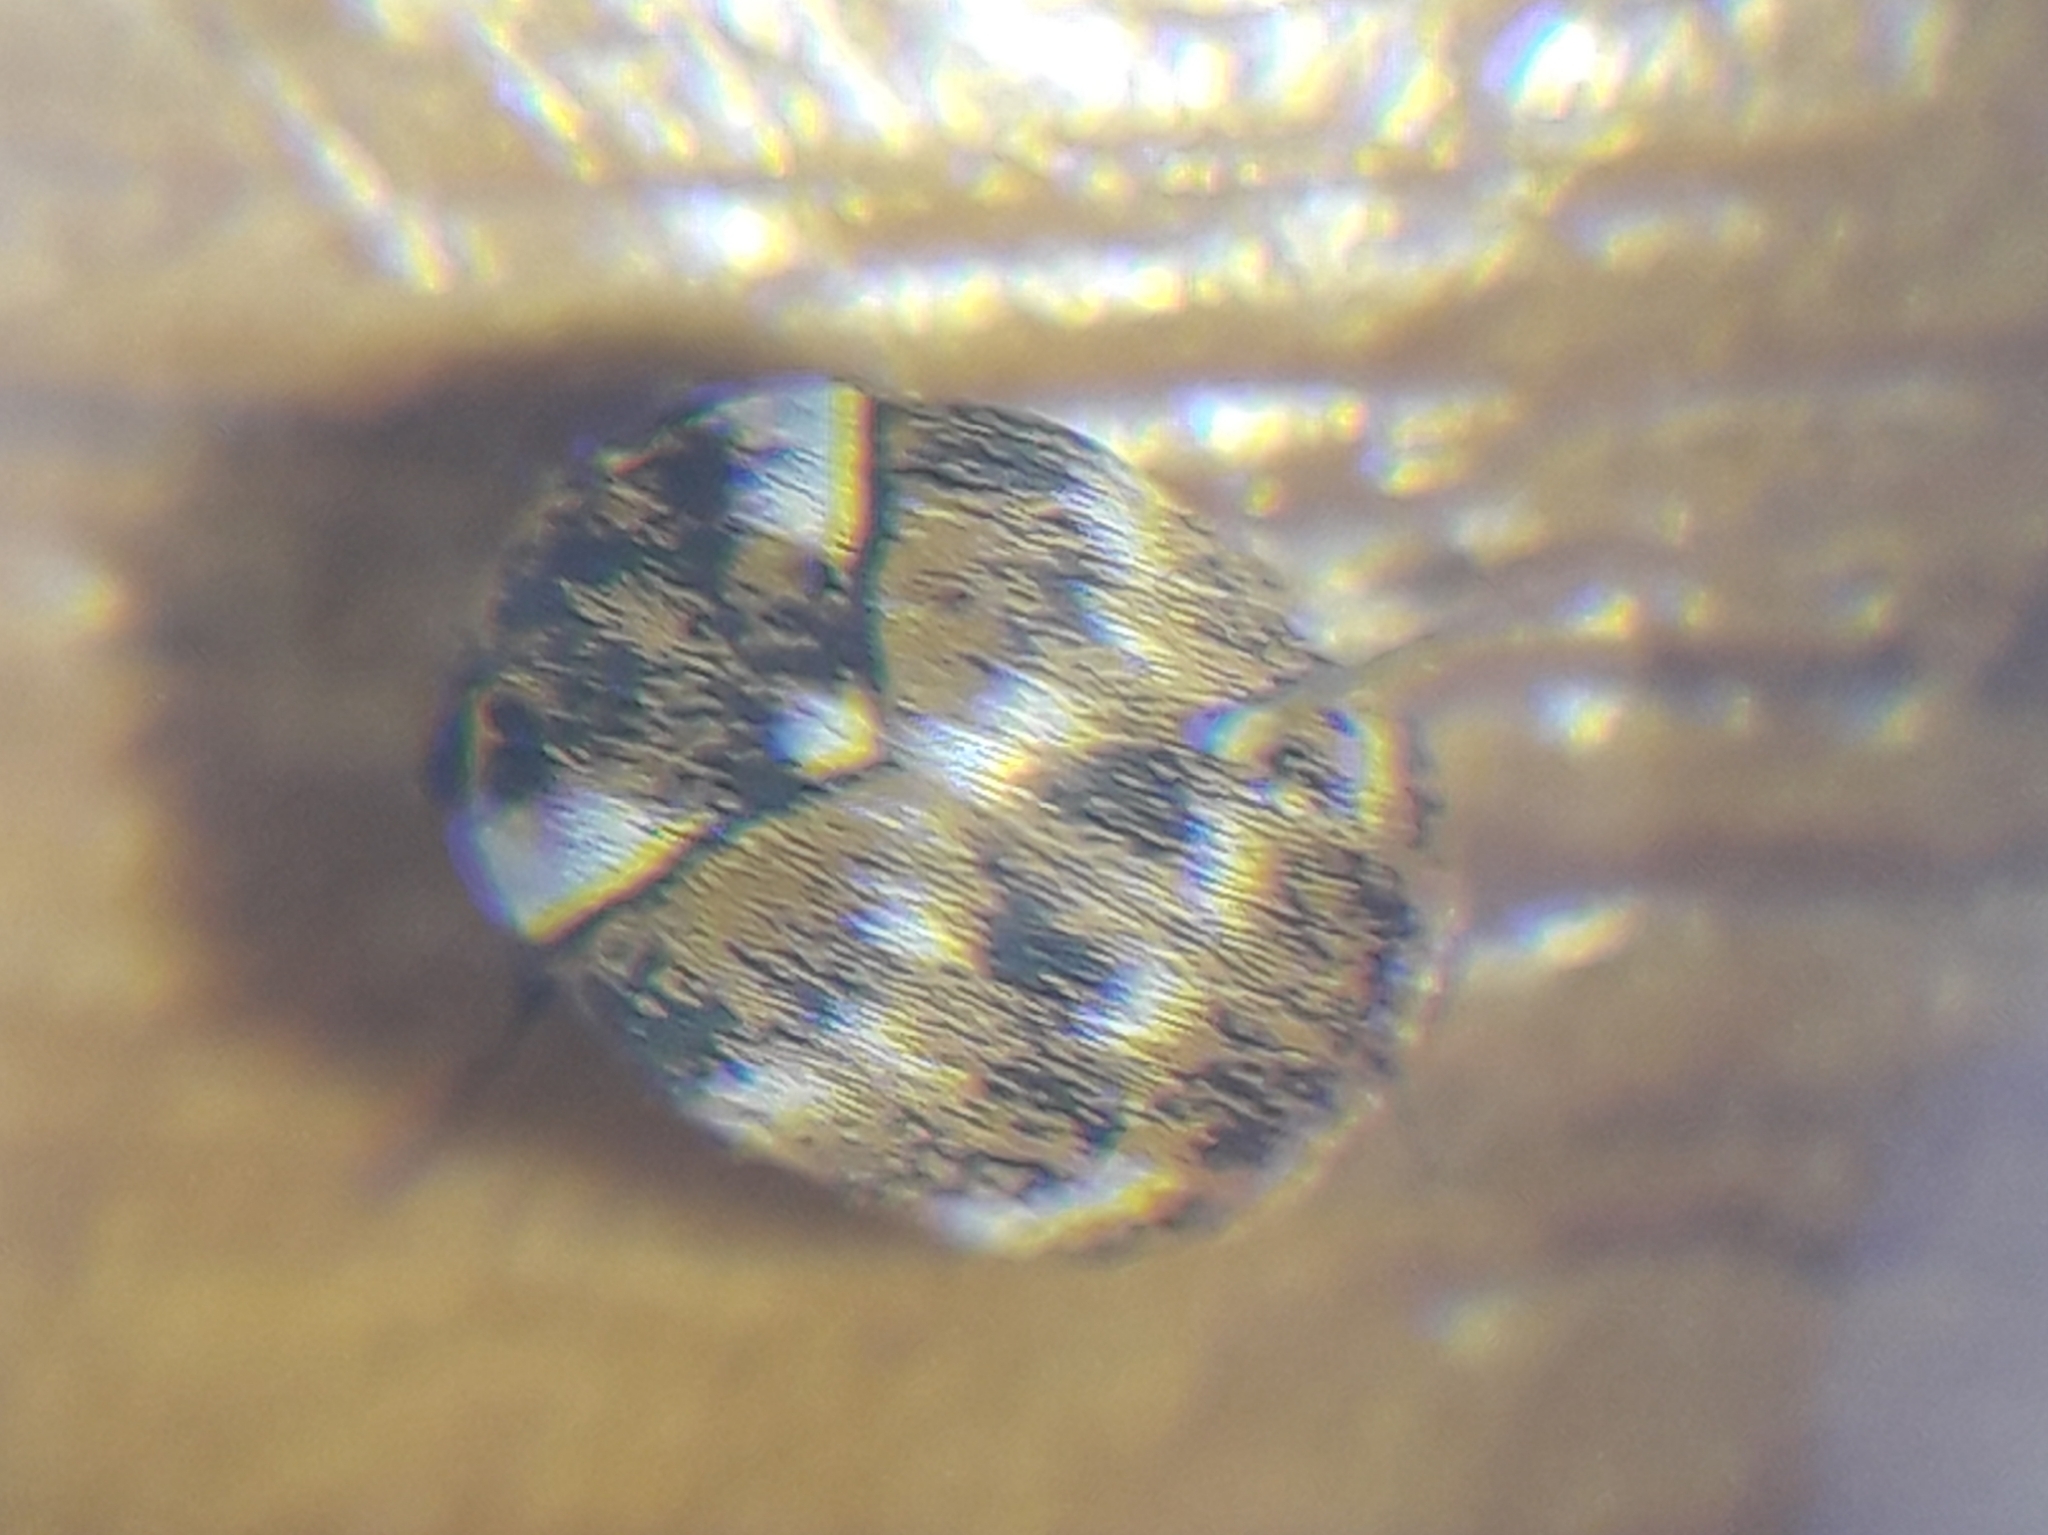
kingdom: Animalia
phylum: Arthropoda
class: Insecta
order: Coleoptera
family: Dermestidae
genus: Anthrenus
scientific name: Anthrenus verbasci
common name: Varied carpet beetle
